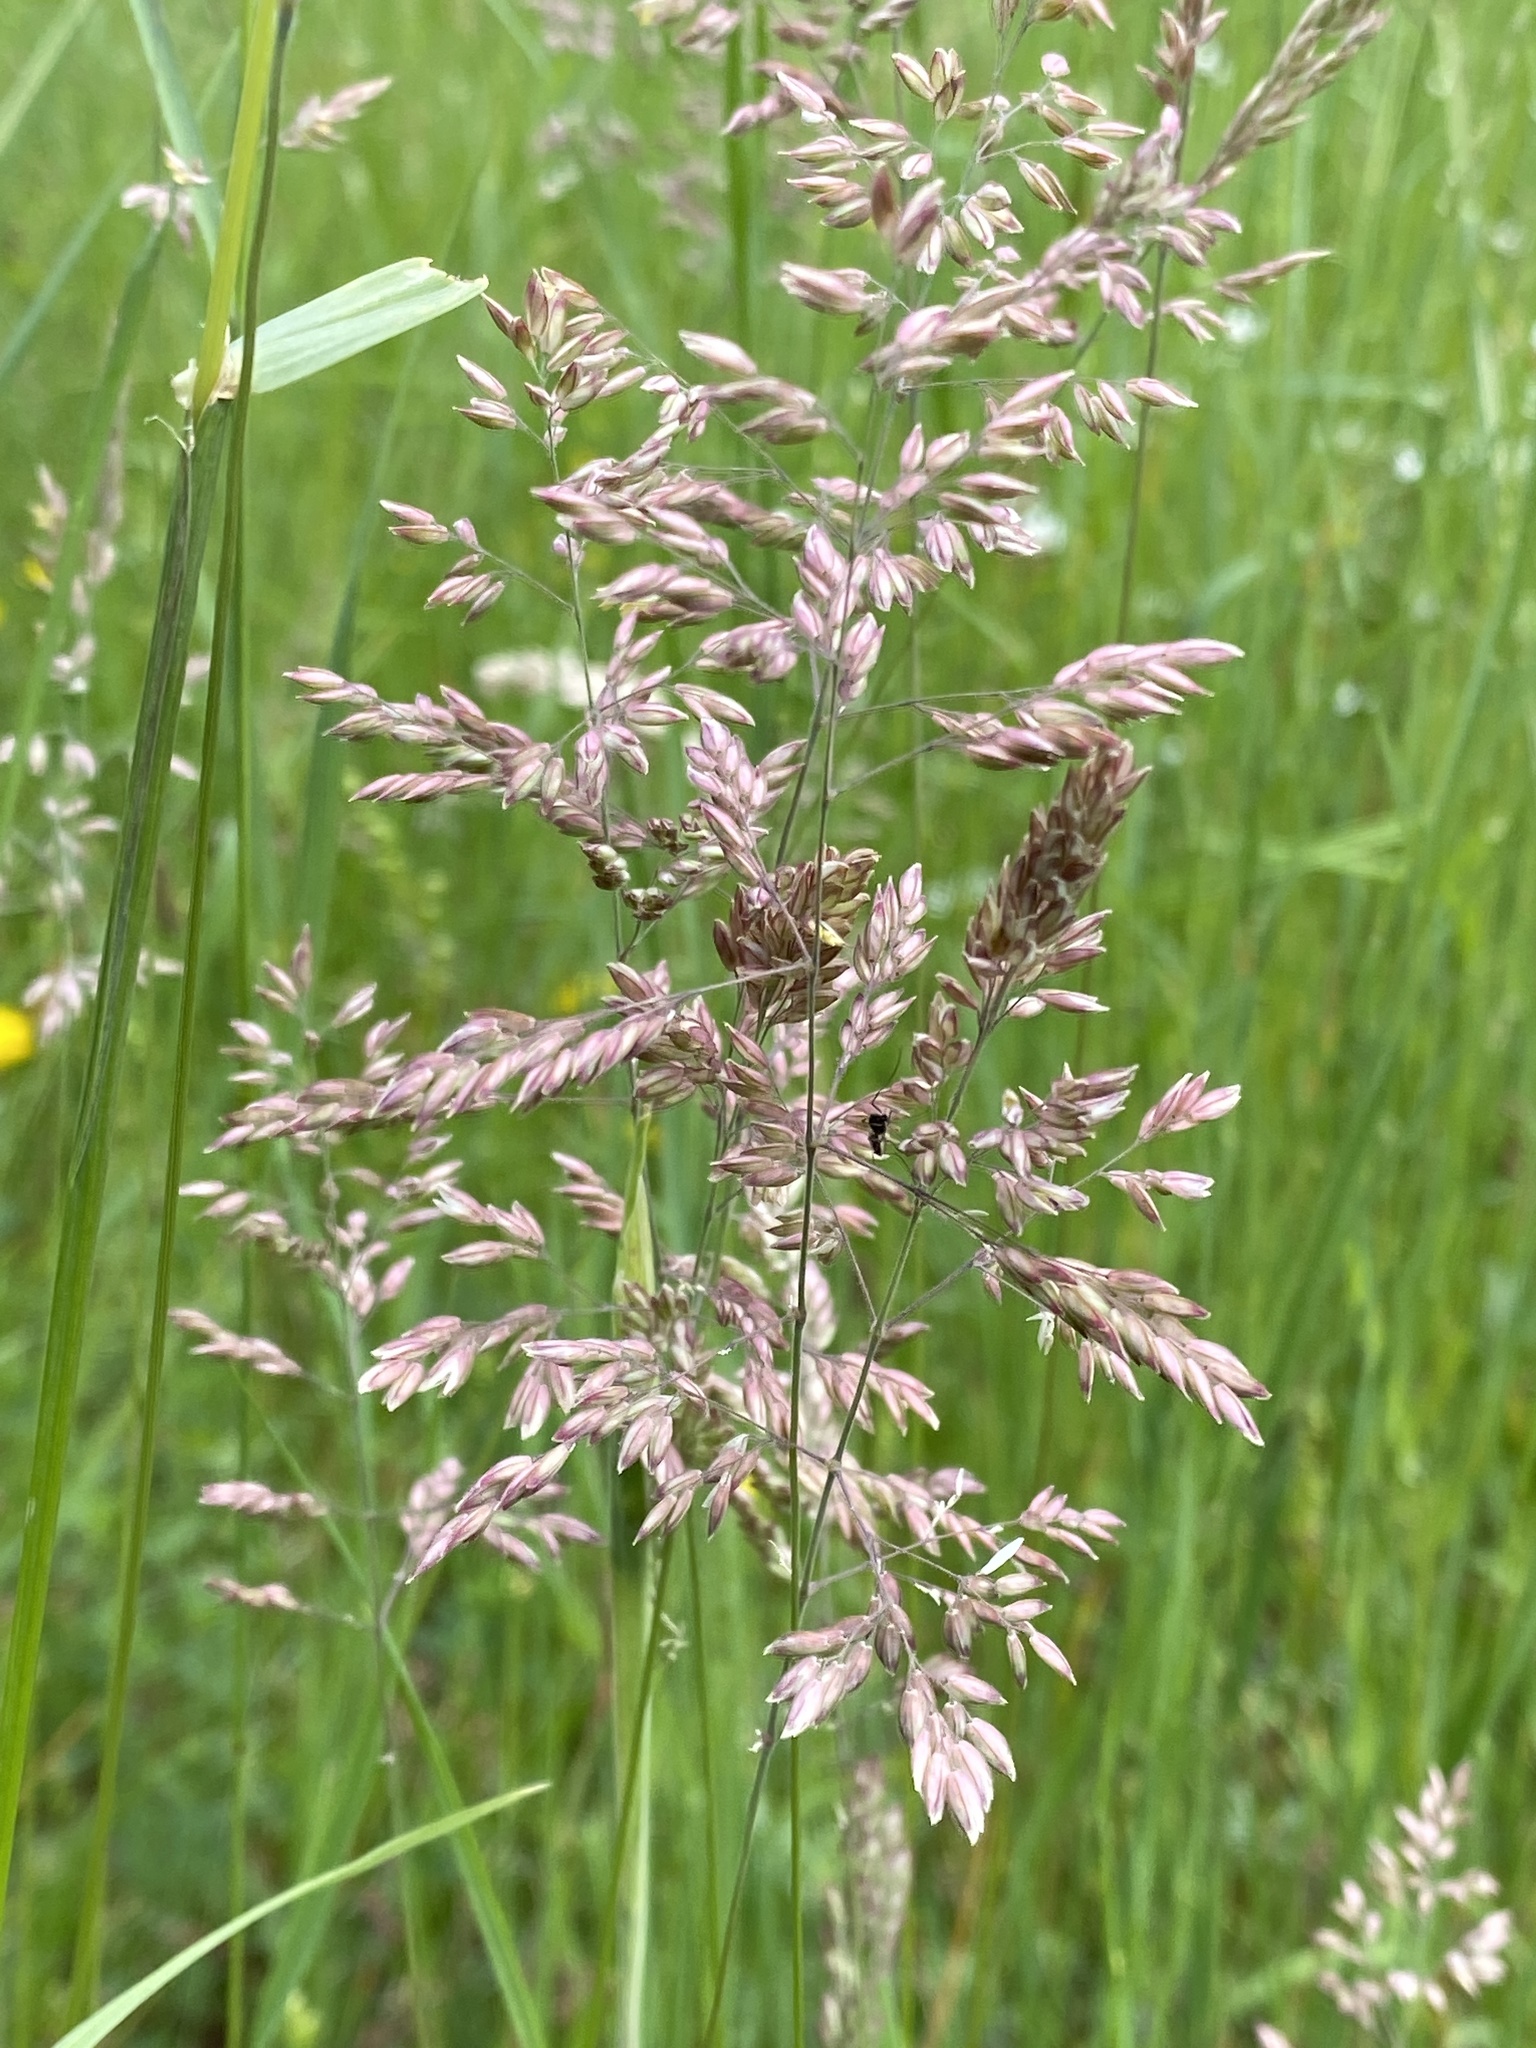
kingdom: Plantae
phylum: Tracheophyta
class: Liliopsida
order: Poales
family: Poaceae
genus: Holcus
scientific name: Holcus lanatus
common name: Yorkshire-fog
